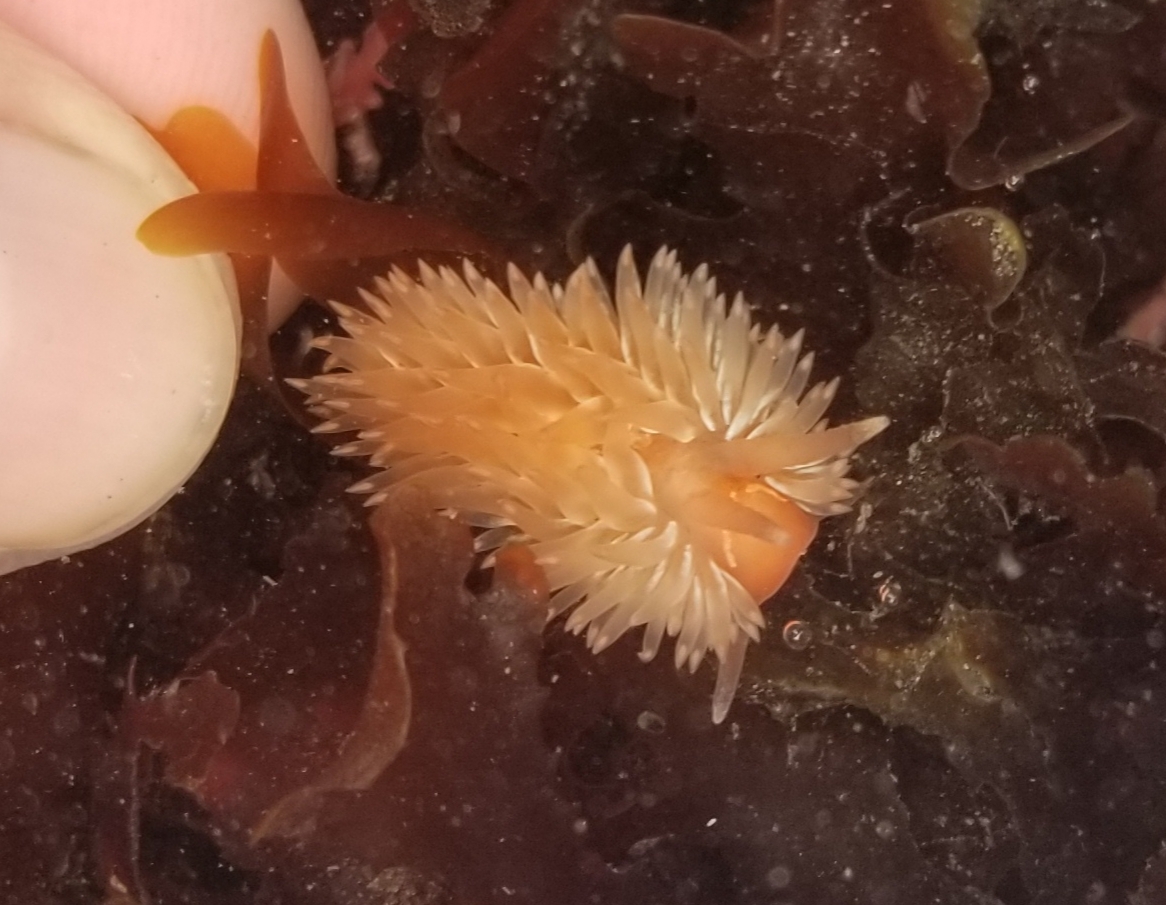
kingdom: Animalia
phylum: Mollusca
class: Gastropoda
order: Nudibranchia
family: Aeolidiidae
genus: Aeolidia
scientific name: Aeolidia loui
